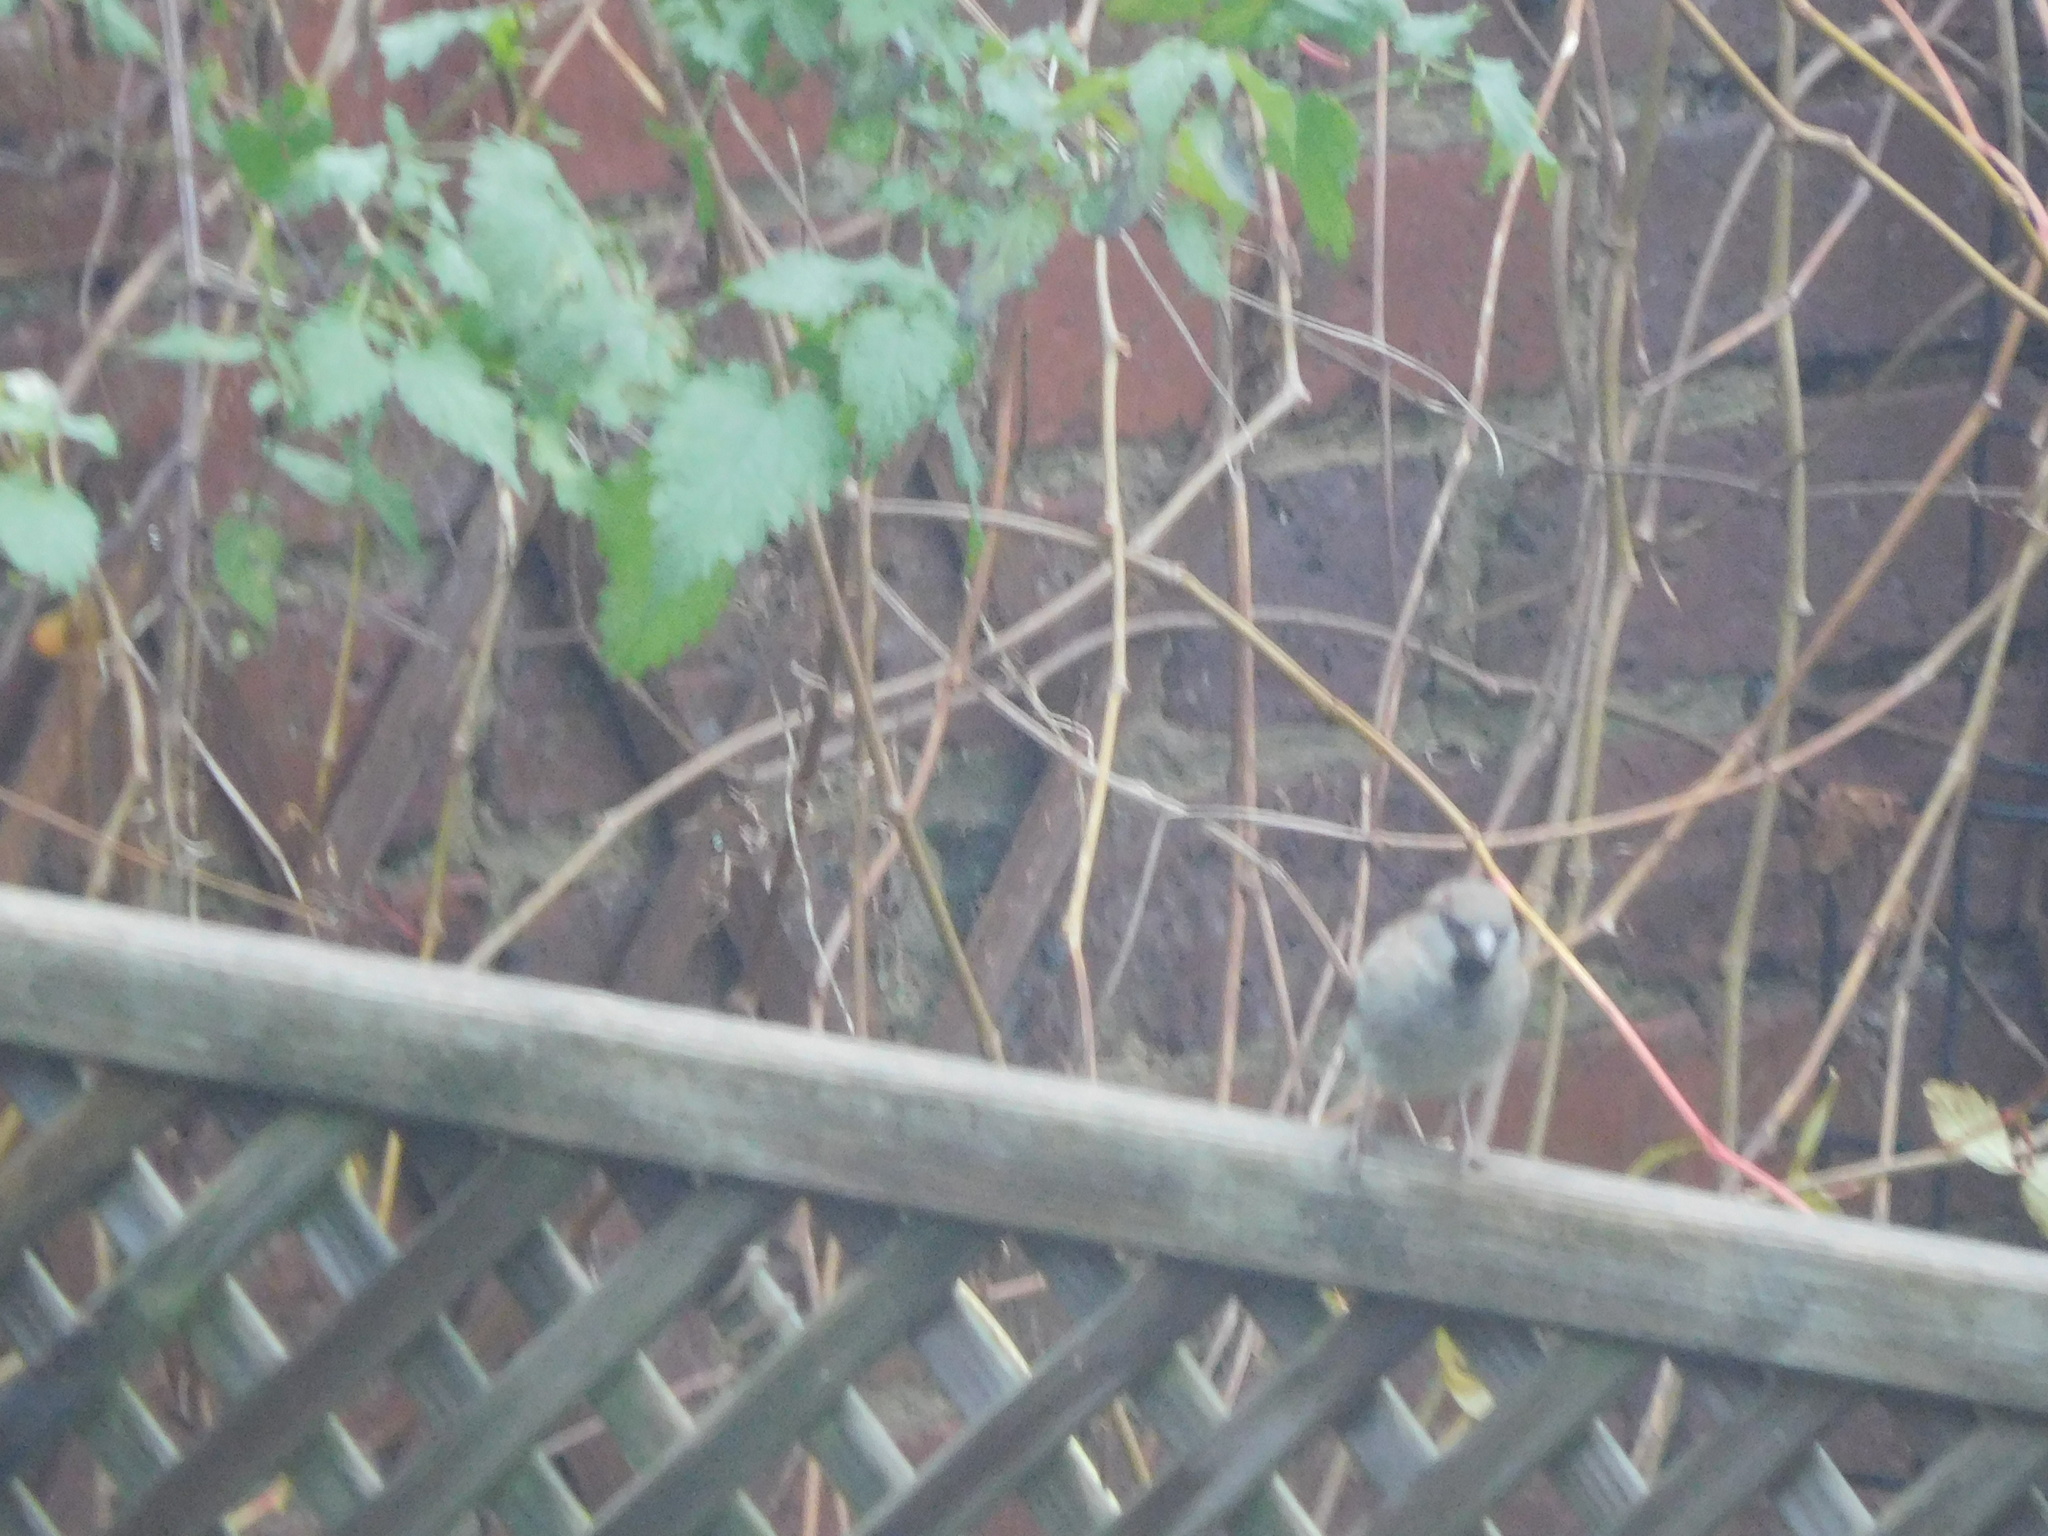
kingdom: Animalia
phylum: Chordata
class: Aves
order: Passeriformes
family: Passeridae
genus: Passer
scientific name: Passer domesticus
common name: House sparrow
